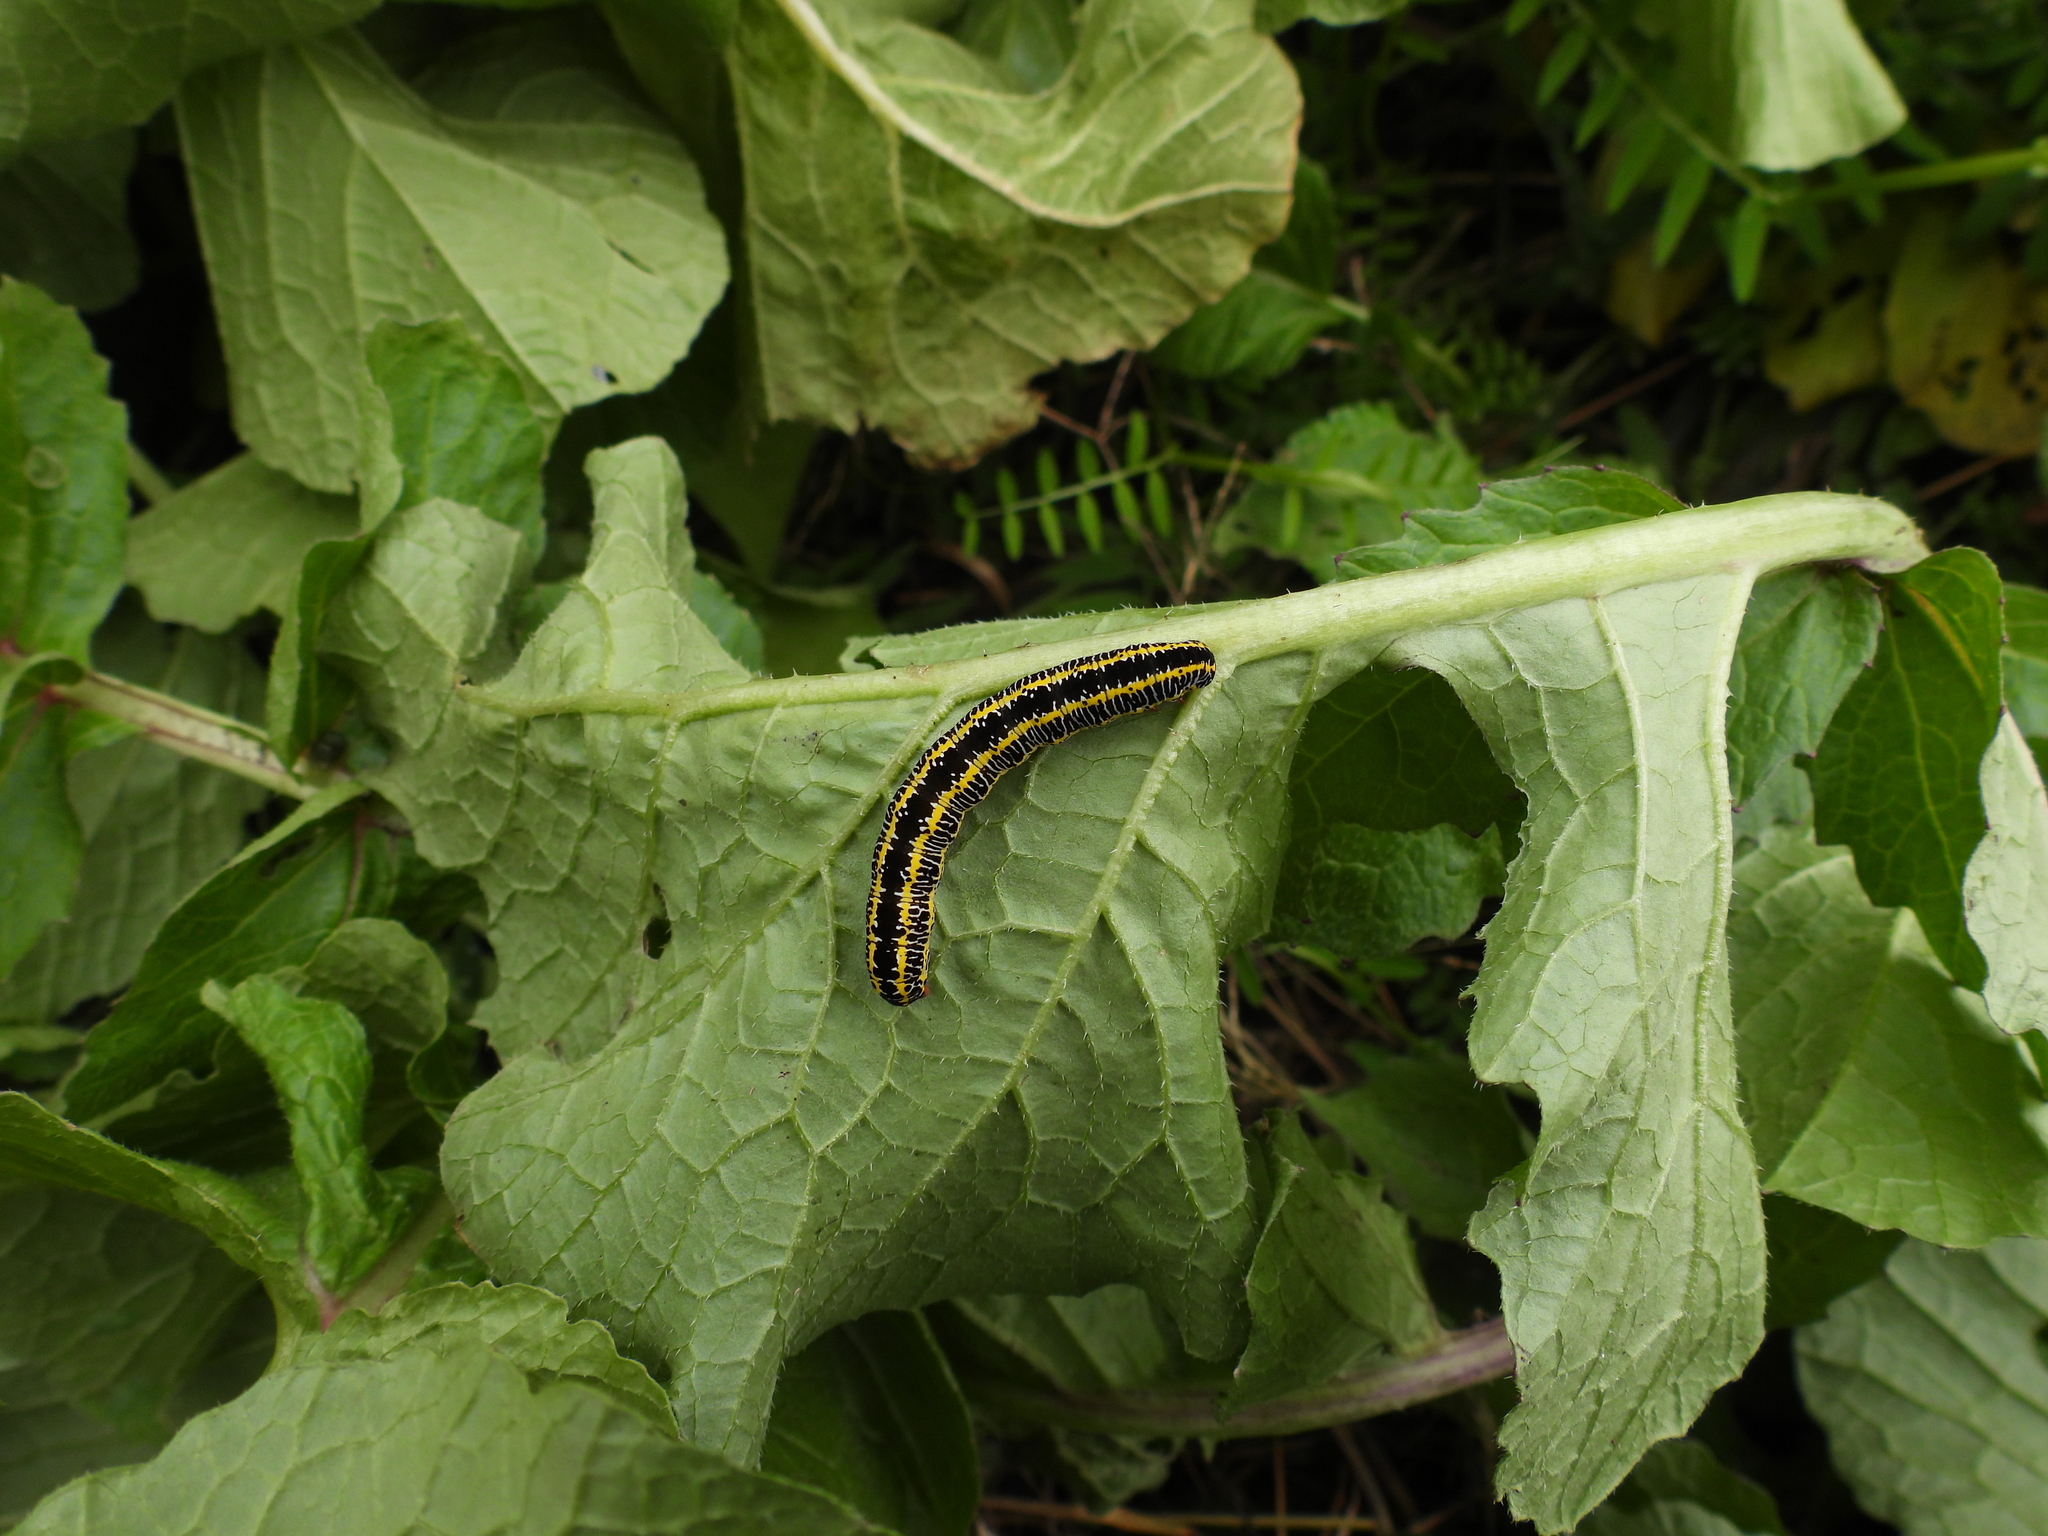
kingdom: Animalia
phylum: Arthropoda
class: Insecta
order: Lepidoptera
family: Noctuidae
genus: Melanchra
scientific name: Melanchra picta
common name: Zebra caterpillar
